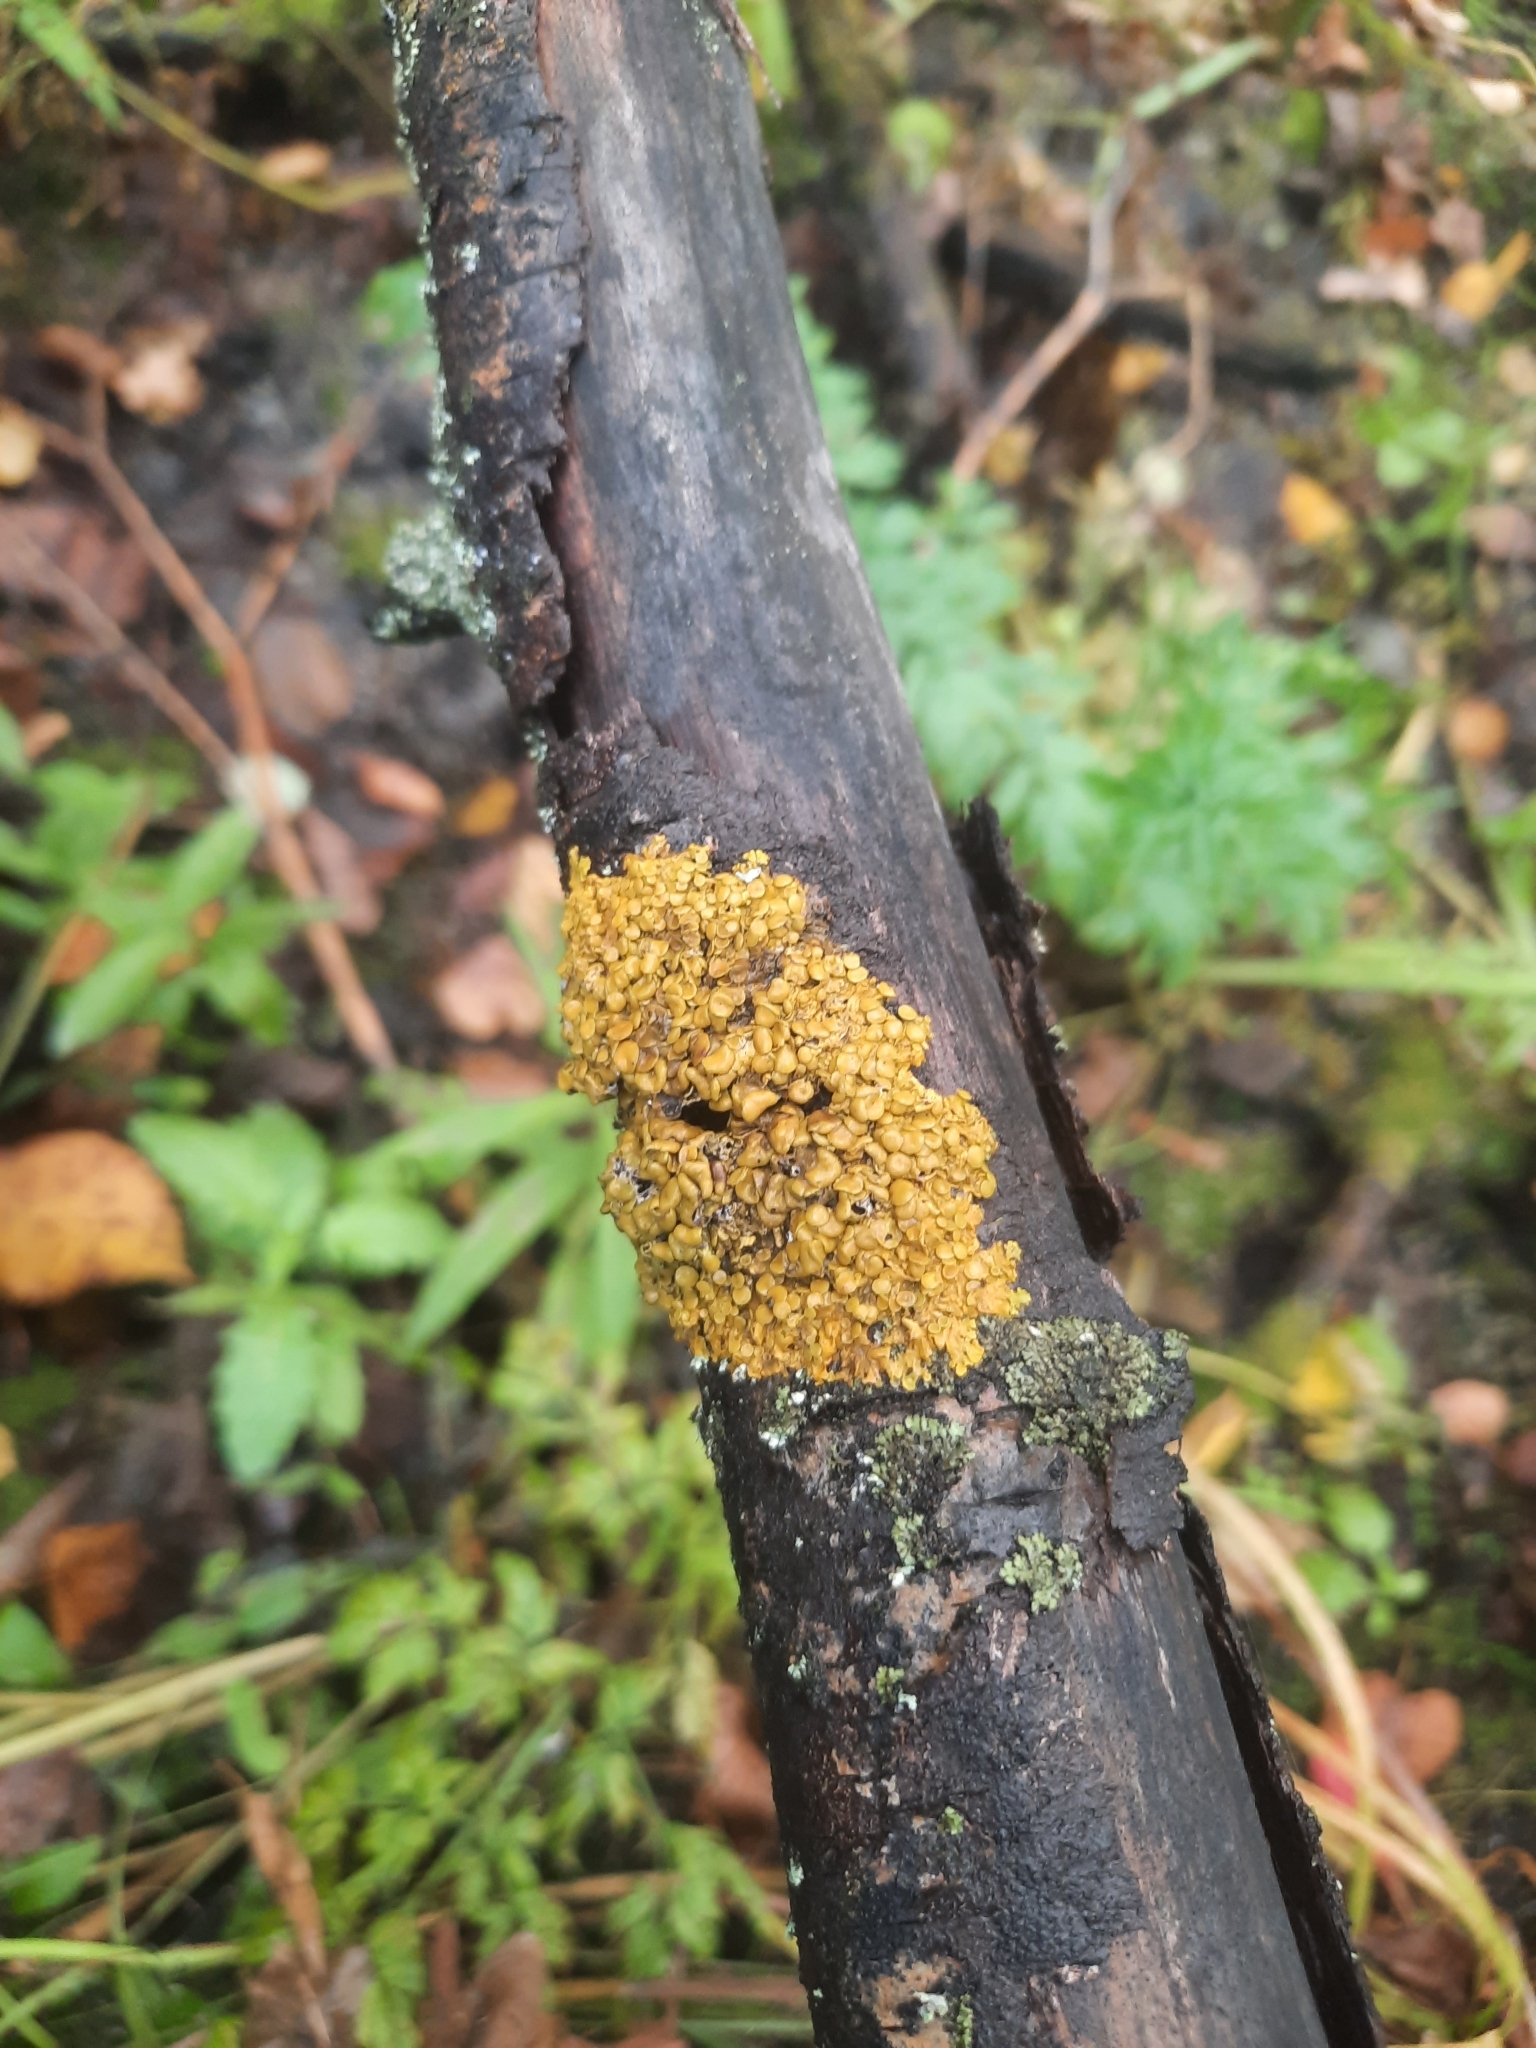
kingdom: Fungi
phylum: Ascomycota
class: Lecanoromycetes
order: Teloschistales
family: Teloschistaceae
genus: Xanthoria
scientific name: Xanthoria parietina
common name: Common orange lichen
